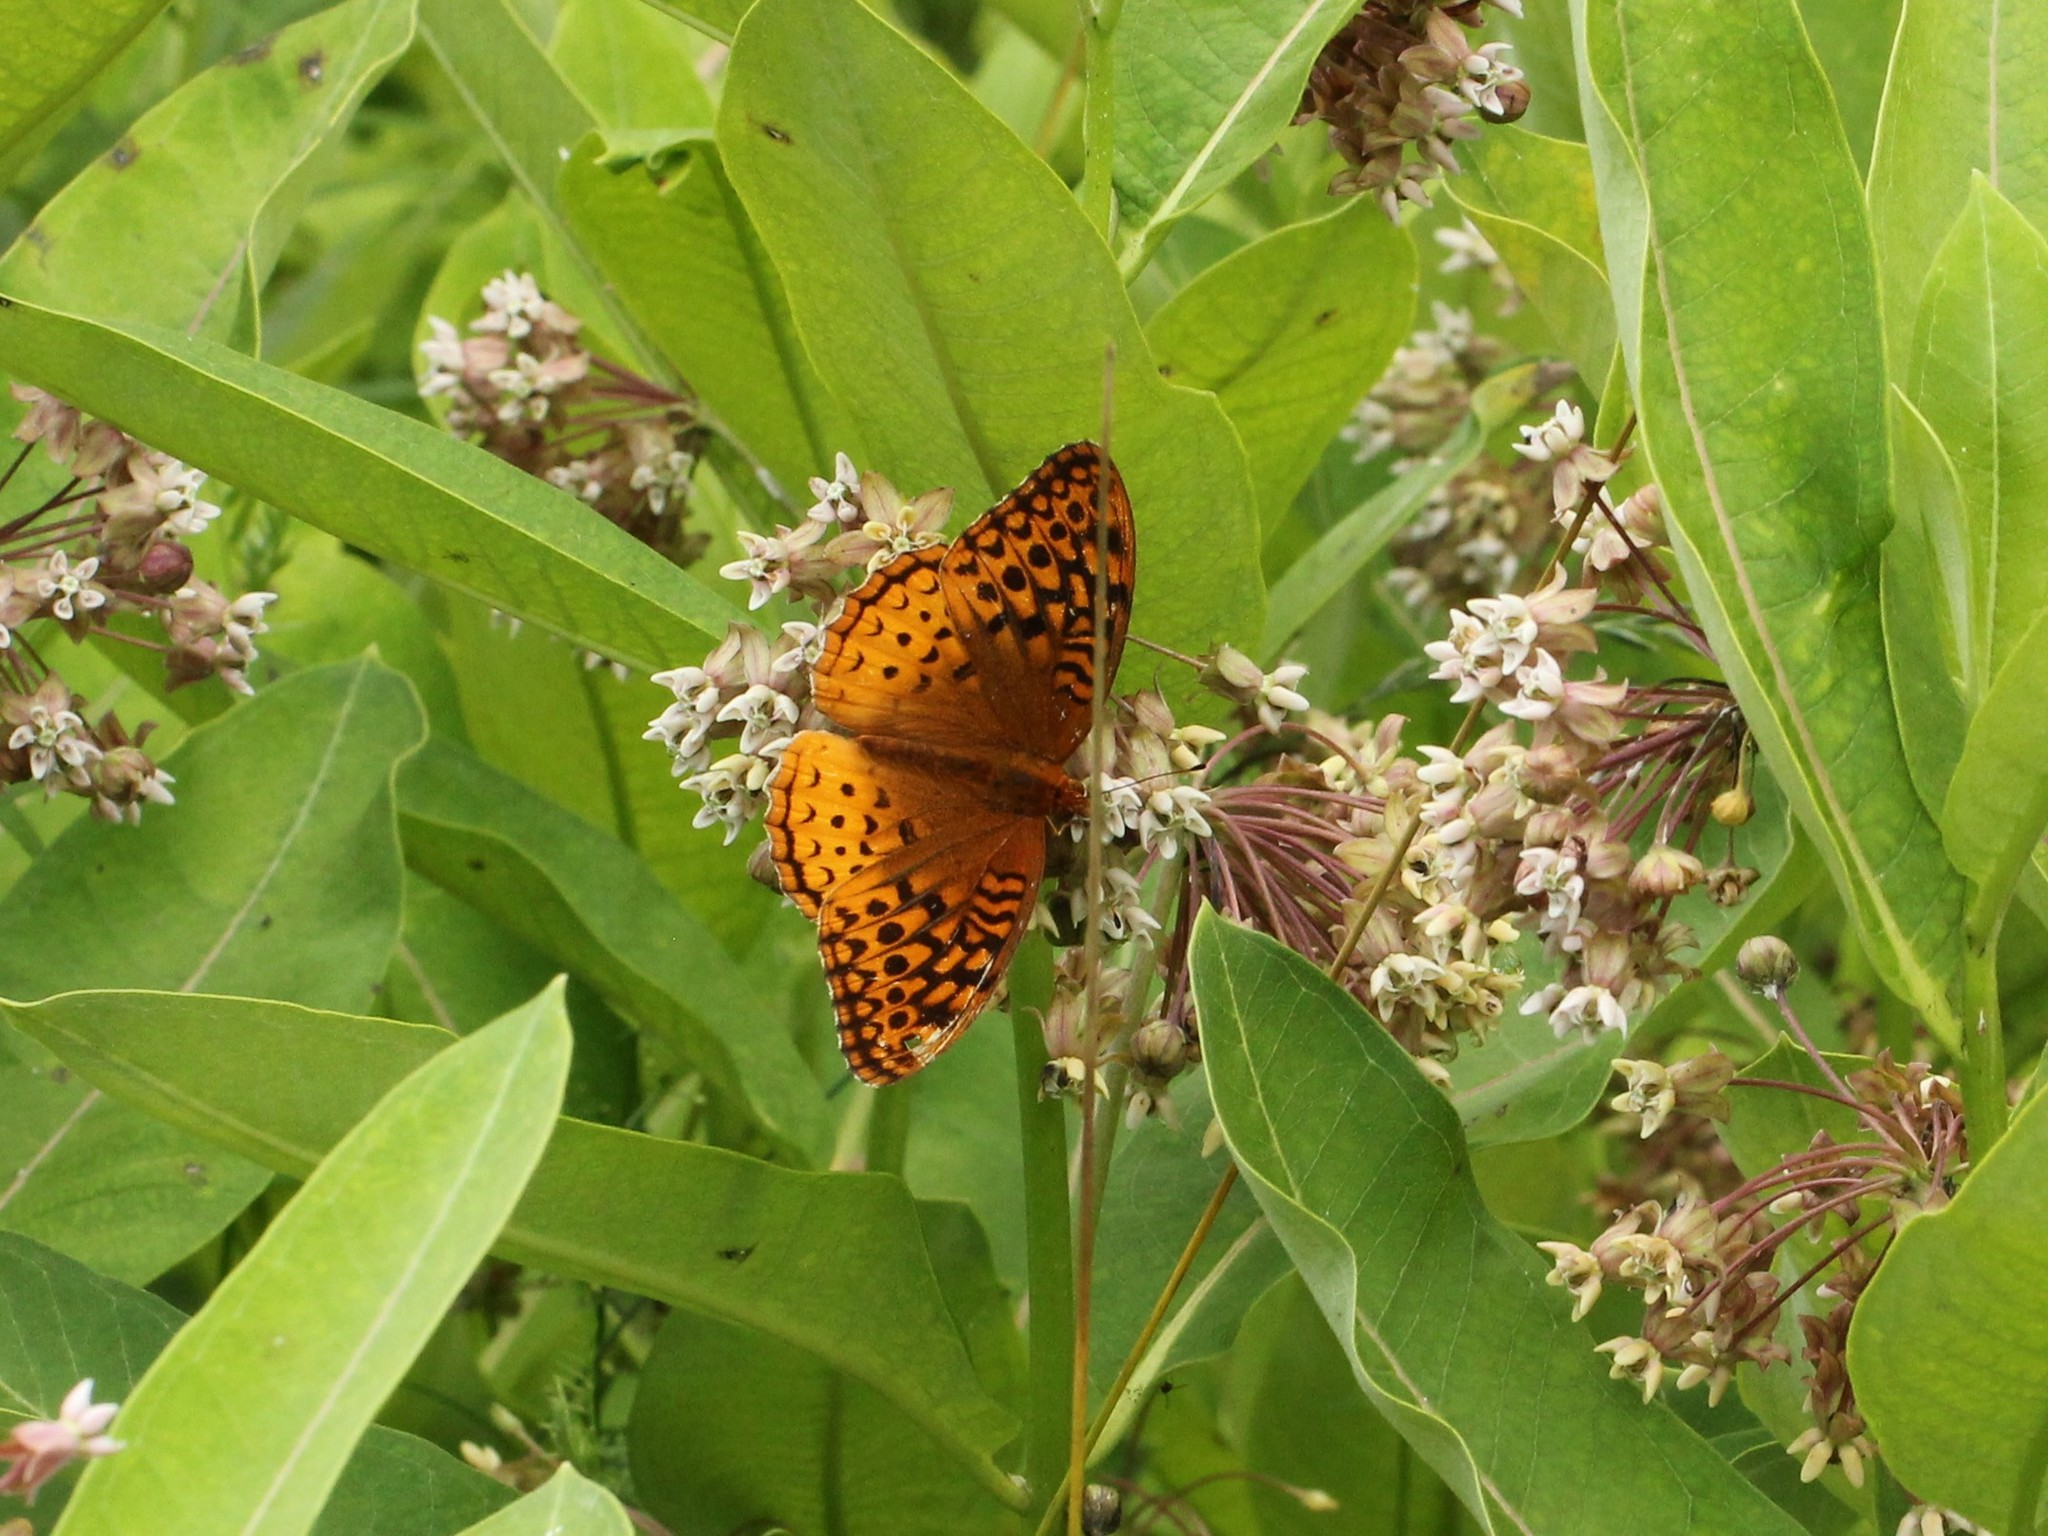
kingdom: Animalia
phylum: Arthropoda
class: Insecta
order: Lepidoptera
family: Nymphalidae
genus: Speyeria
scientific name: Speyeria cybele
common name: Great spangled fritillary
